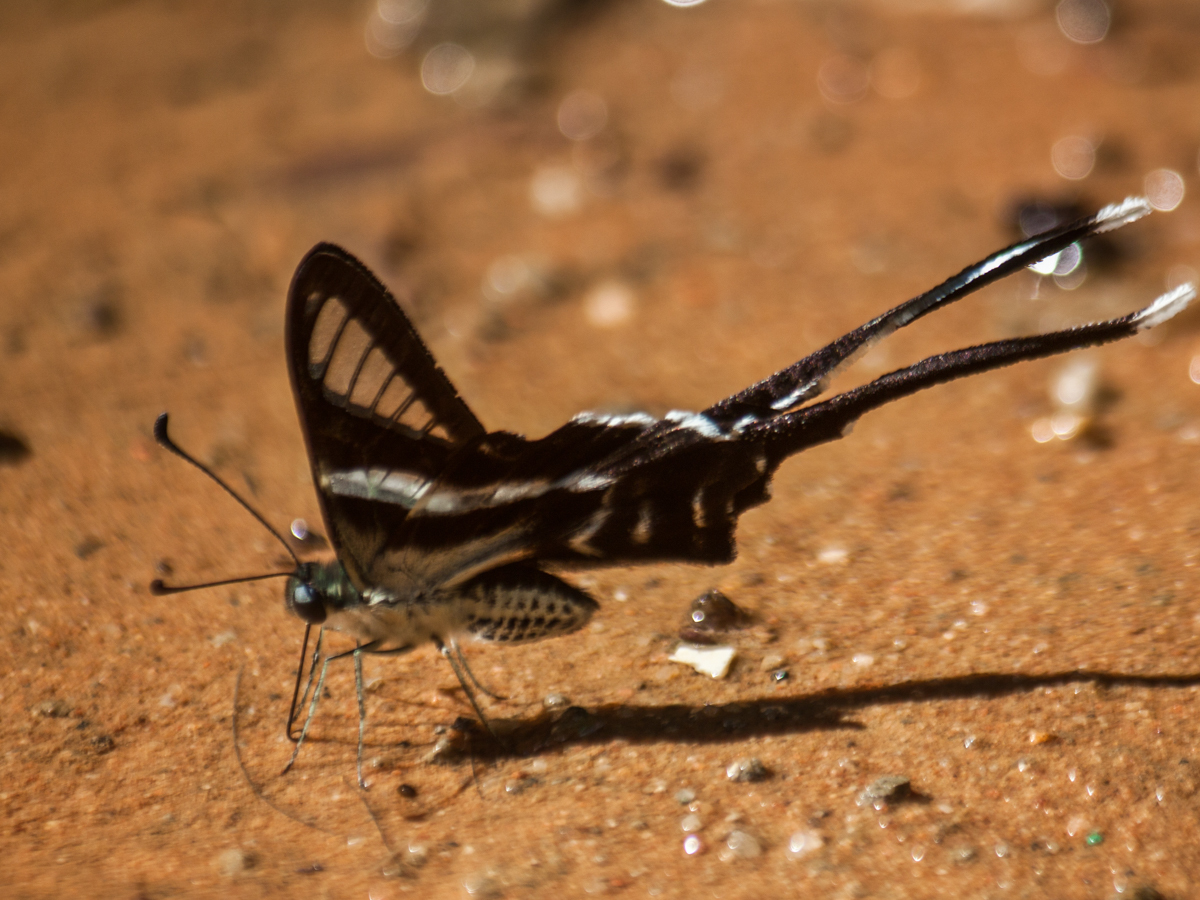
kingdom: Animalia
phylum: Arthropoda
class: Insecta
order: Lepidoptera
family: Papilionidae
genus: Lamproptera
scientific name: Lamproptera curius
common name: White dragontail
